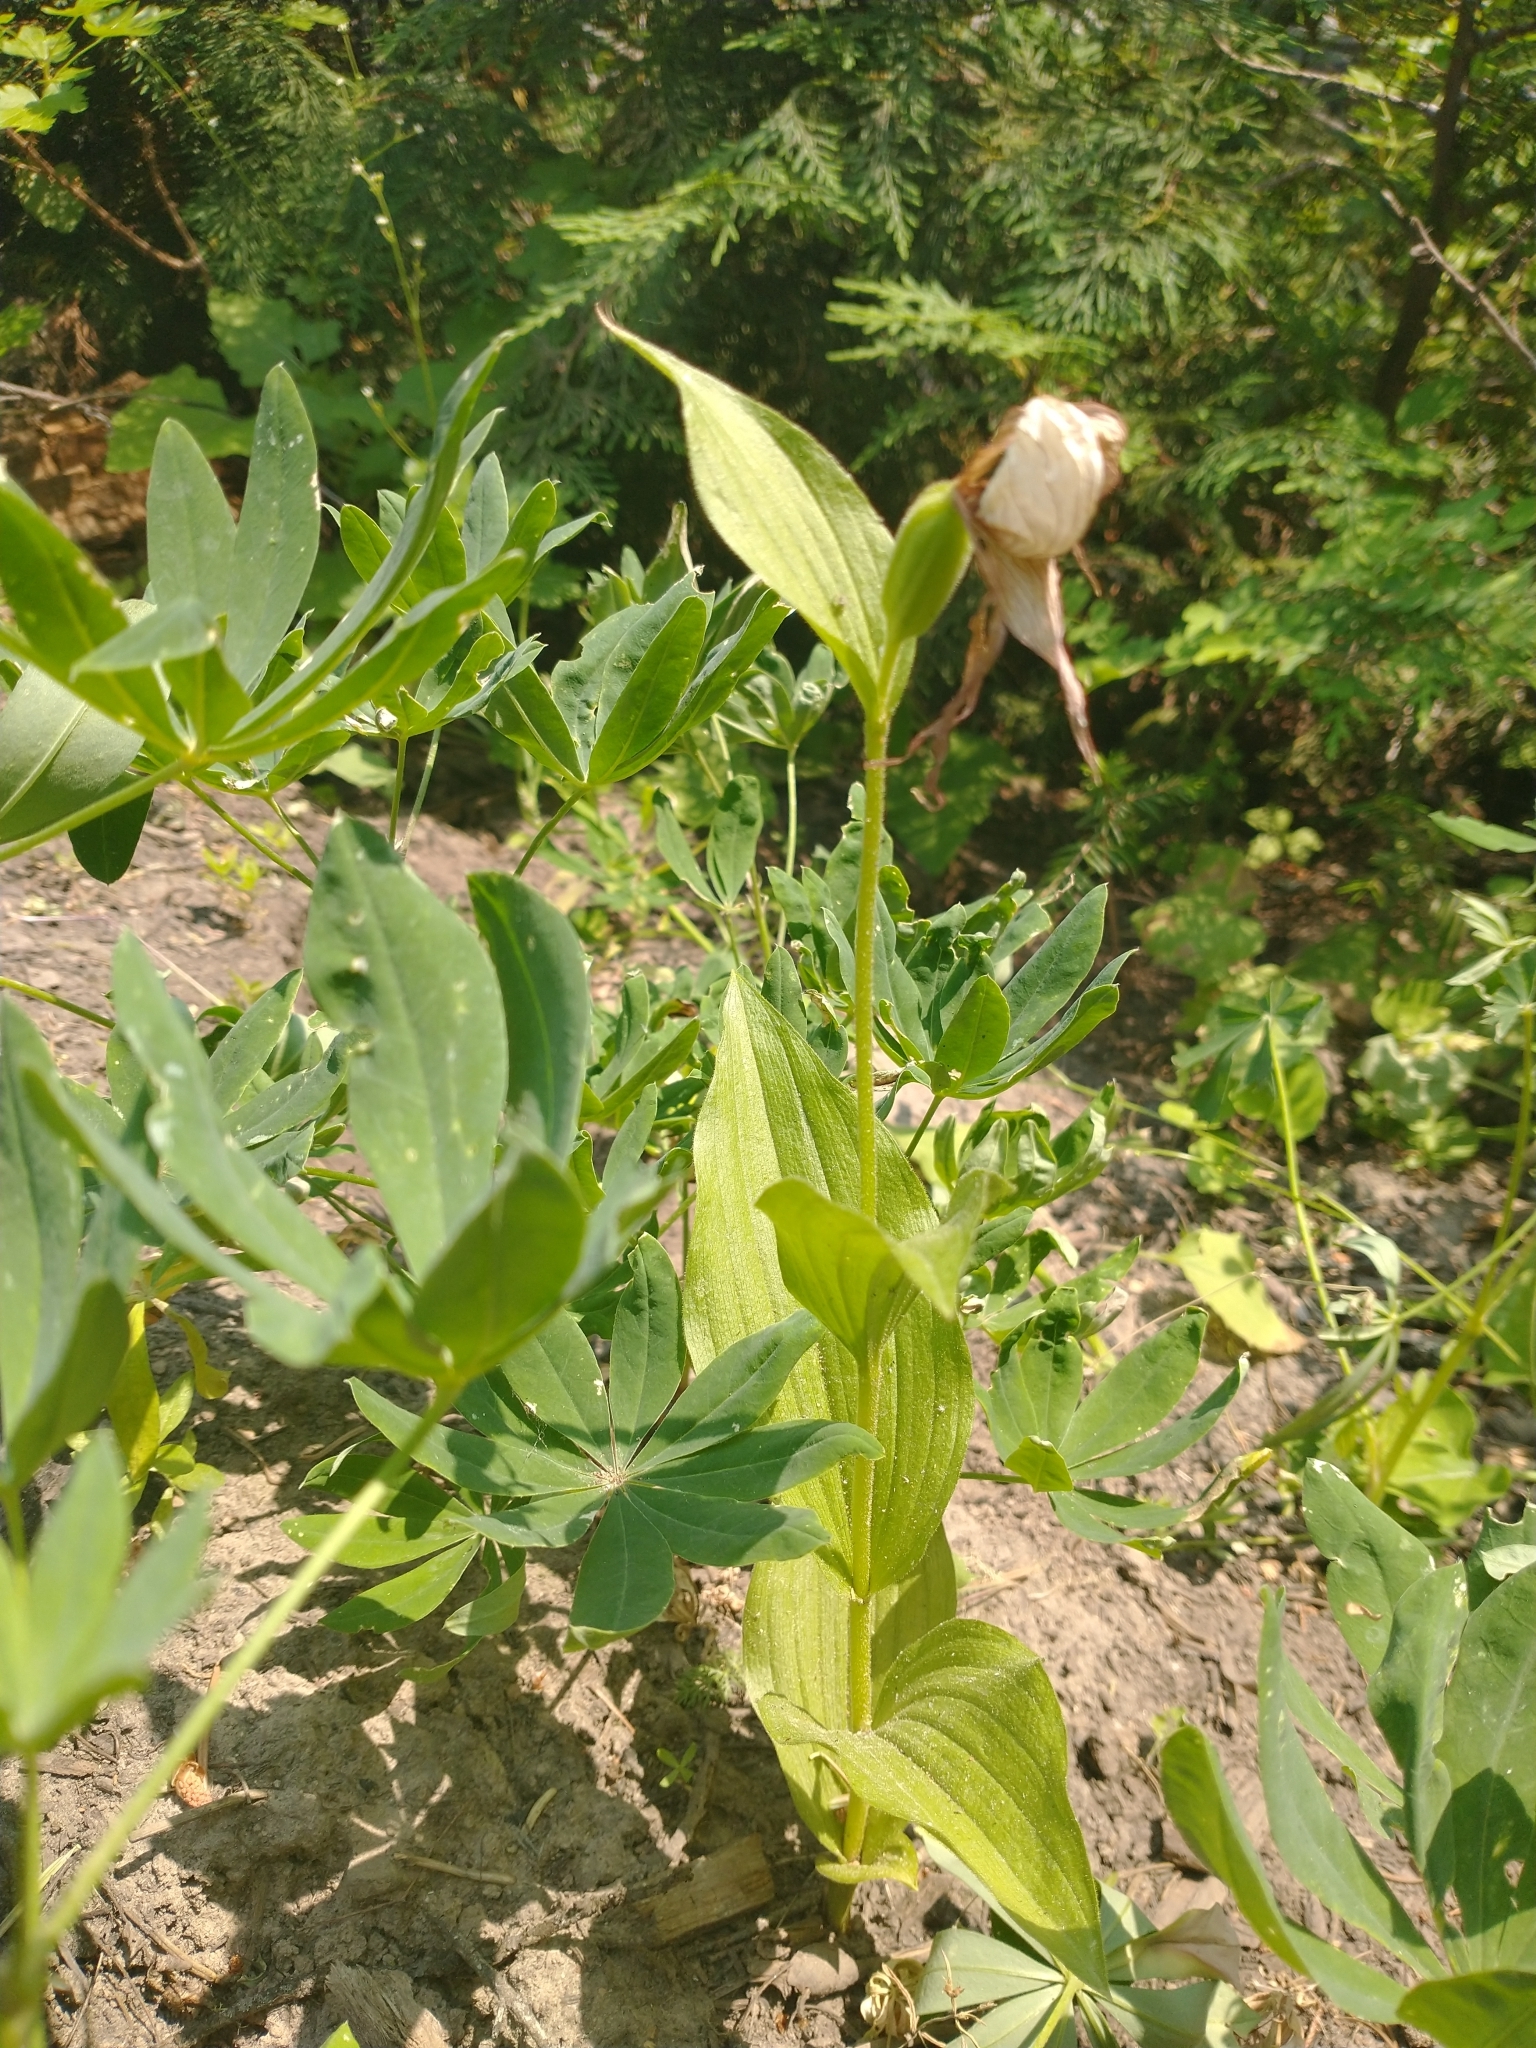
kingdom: Plantae
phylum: Tracheophyta
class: Liliopsida
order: Asparagales
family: Orchidaceae
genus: Cypripedium
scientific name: Cypripedium montanum
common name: Mountain lady's-slipper
